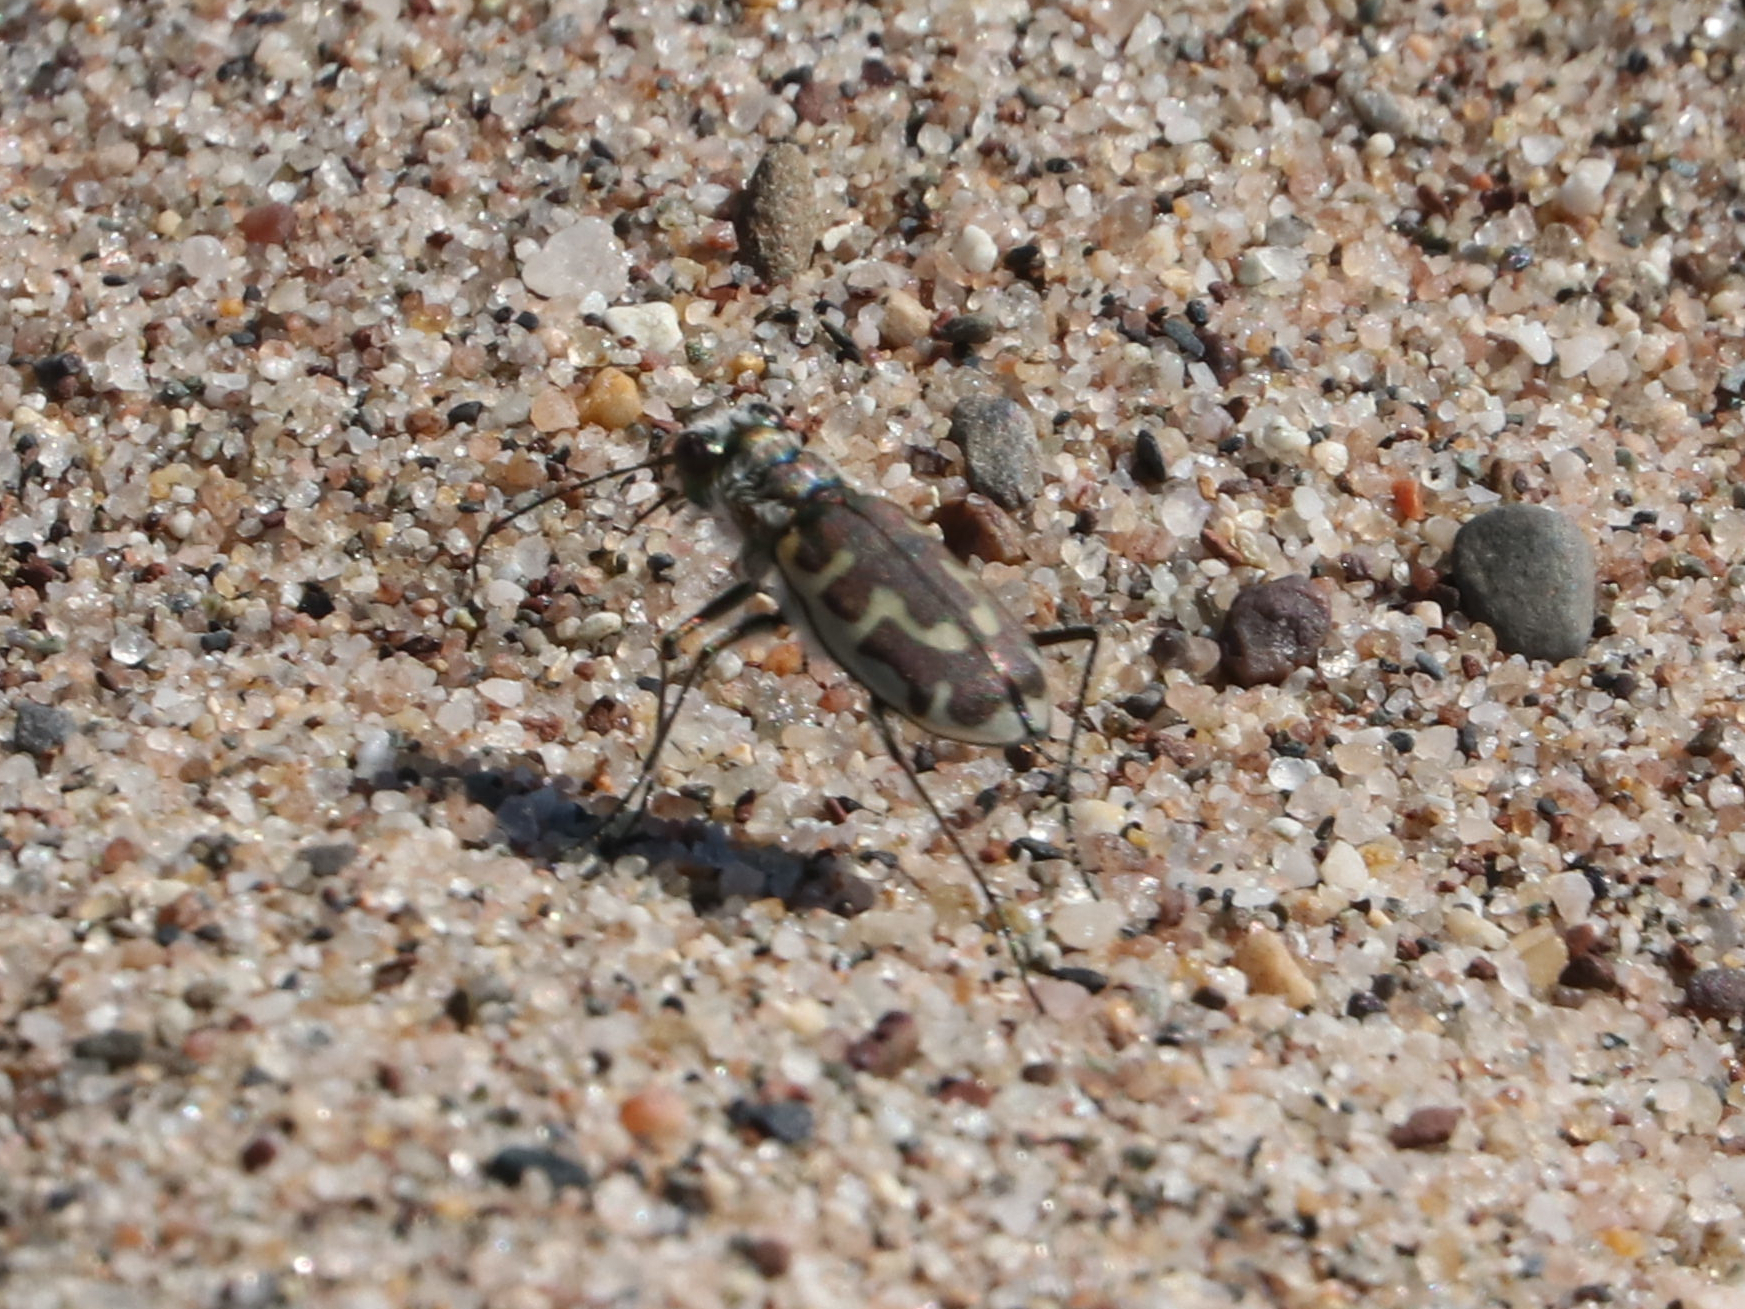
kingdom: Animalia
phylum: Arthropoda
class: Insecta
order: Coleoptera
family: Carabidae
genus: Cicindela
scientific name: Cicindela hirticollis
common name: Hairy-necked tiger beetle
